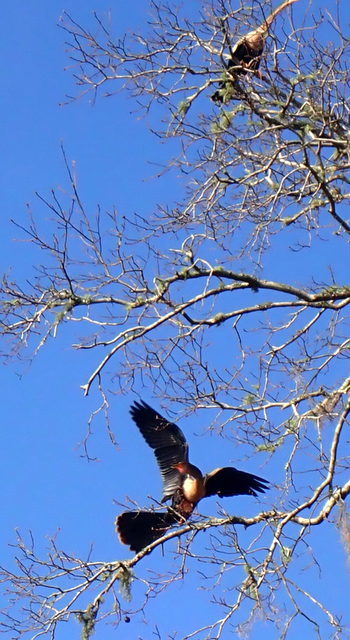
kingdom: Animalia
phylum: Chordata
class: Aves
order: Suliformes
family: Anhingidae
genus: Anhinga
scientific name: Anhinga anhinga
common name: Anhinga
